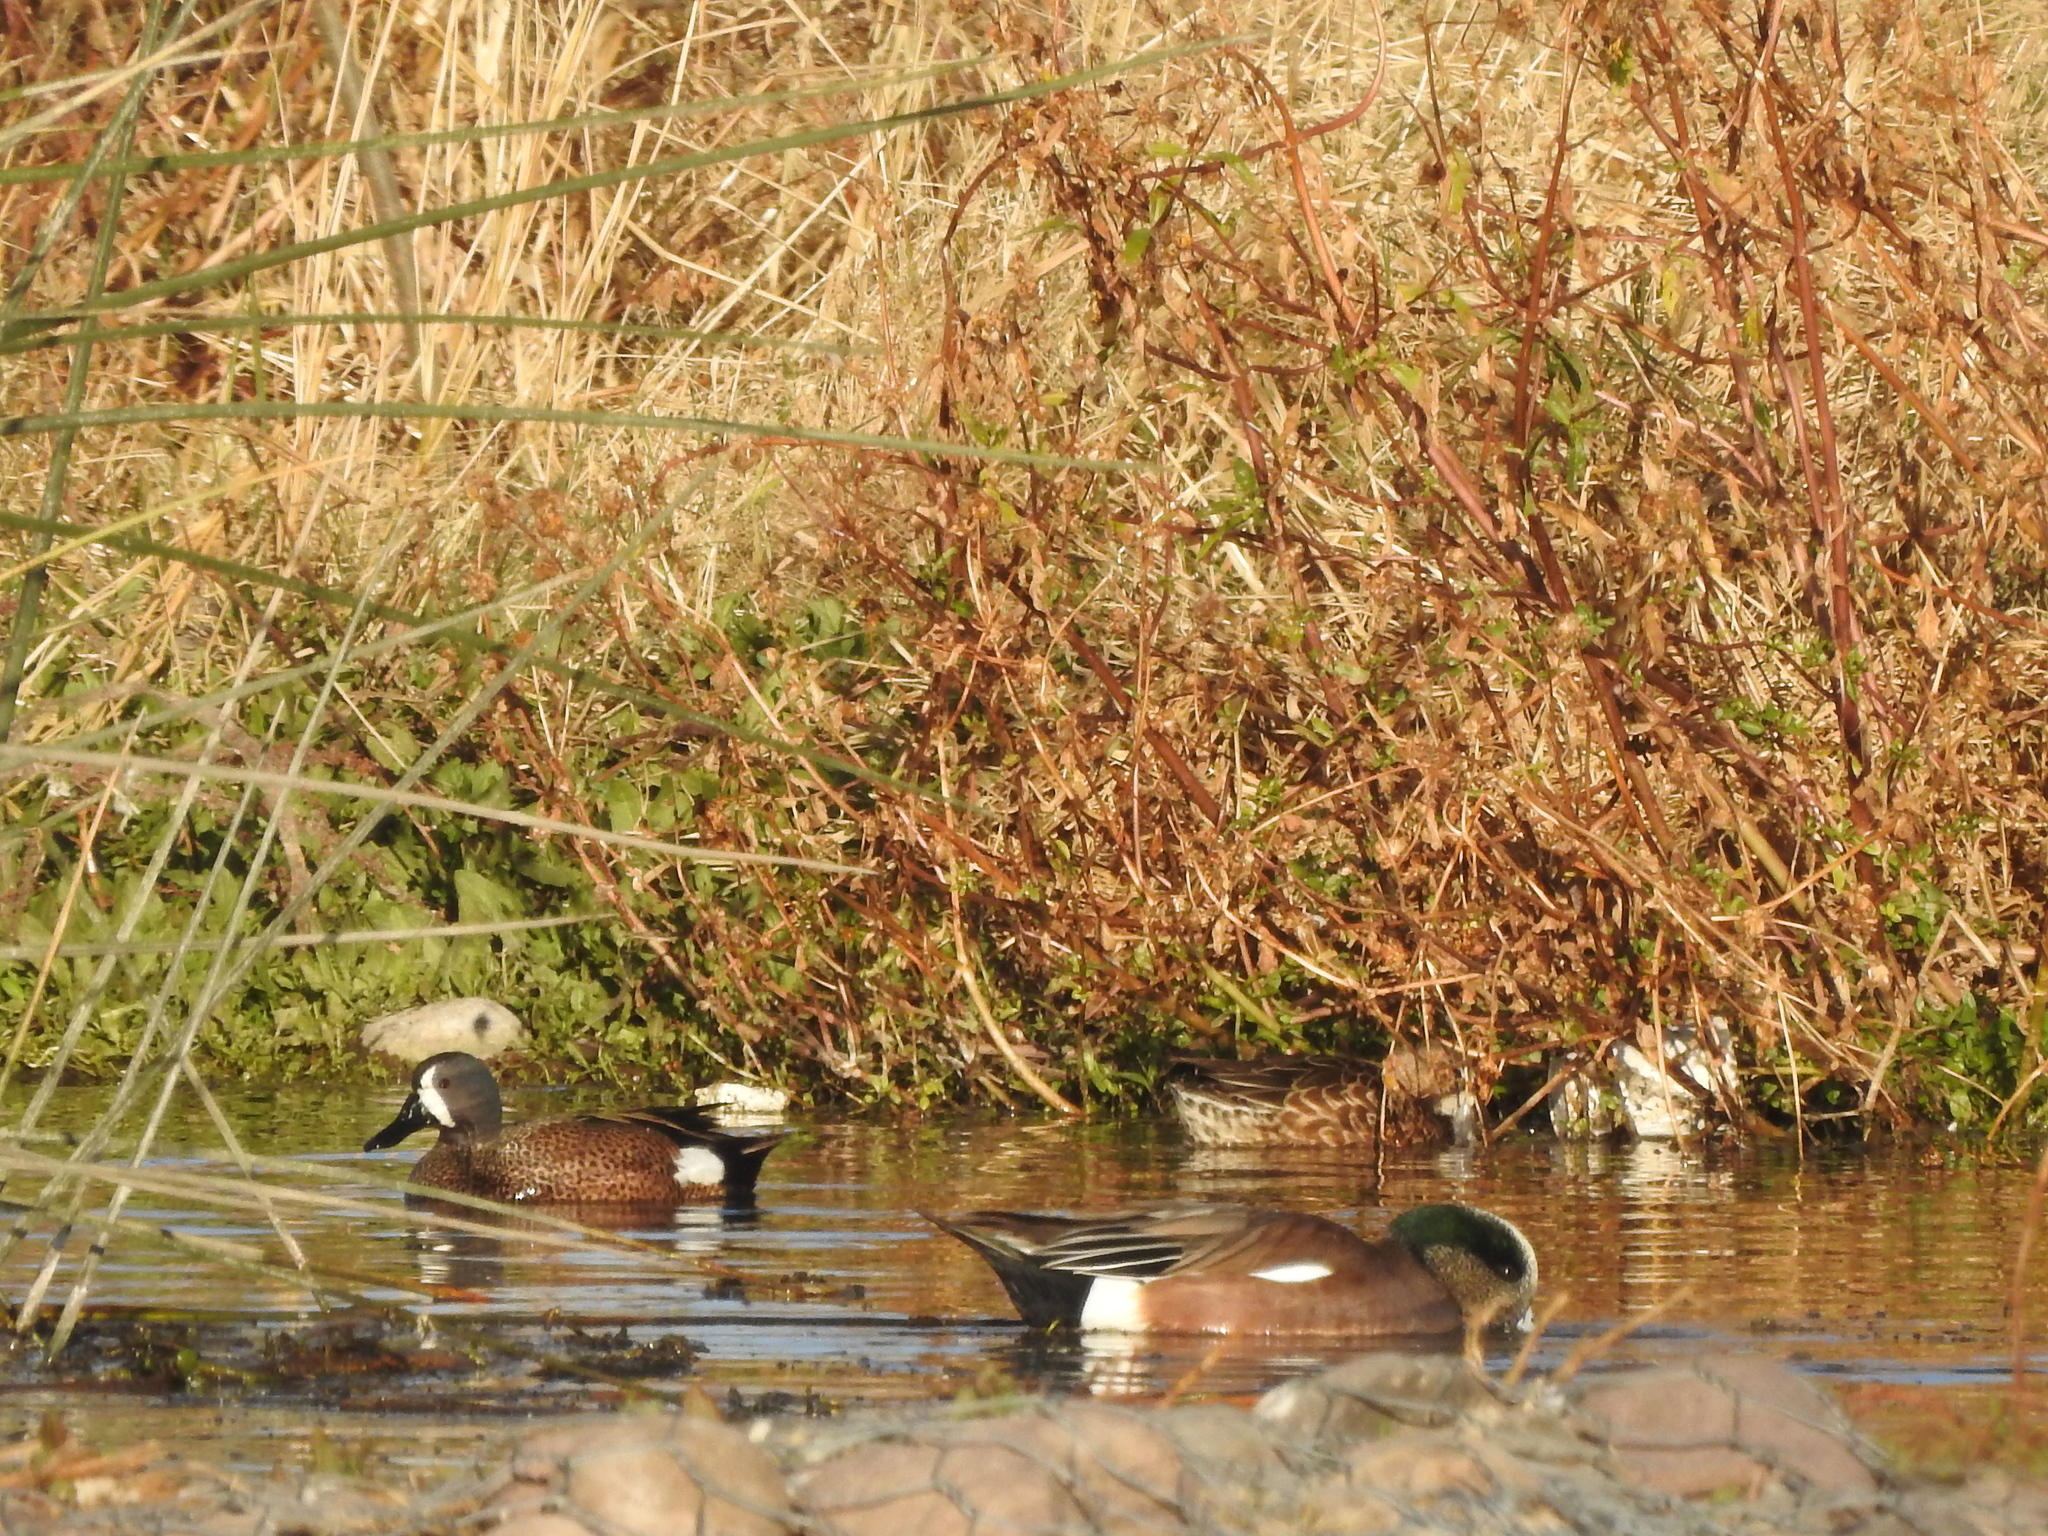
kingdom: Animalia
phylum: Chordata
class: Aves
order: Anseriformes
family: Anatidae
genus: Spatula
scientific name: Spatula discors
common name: Blue-winged teal
